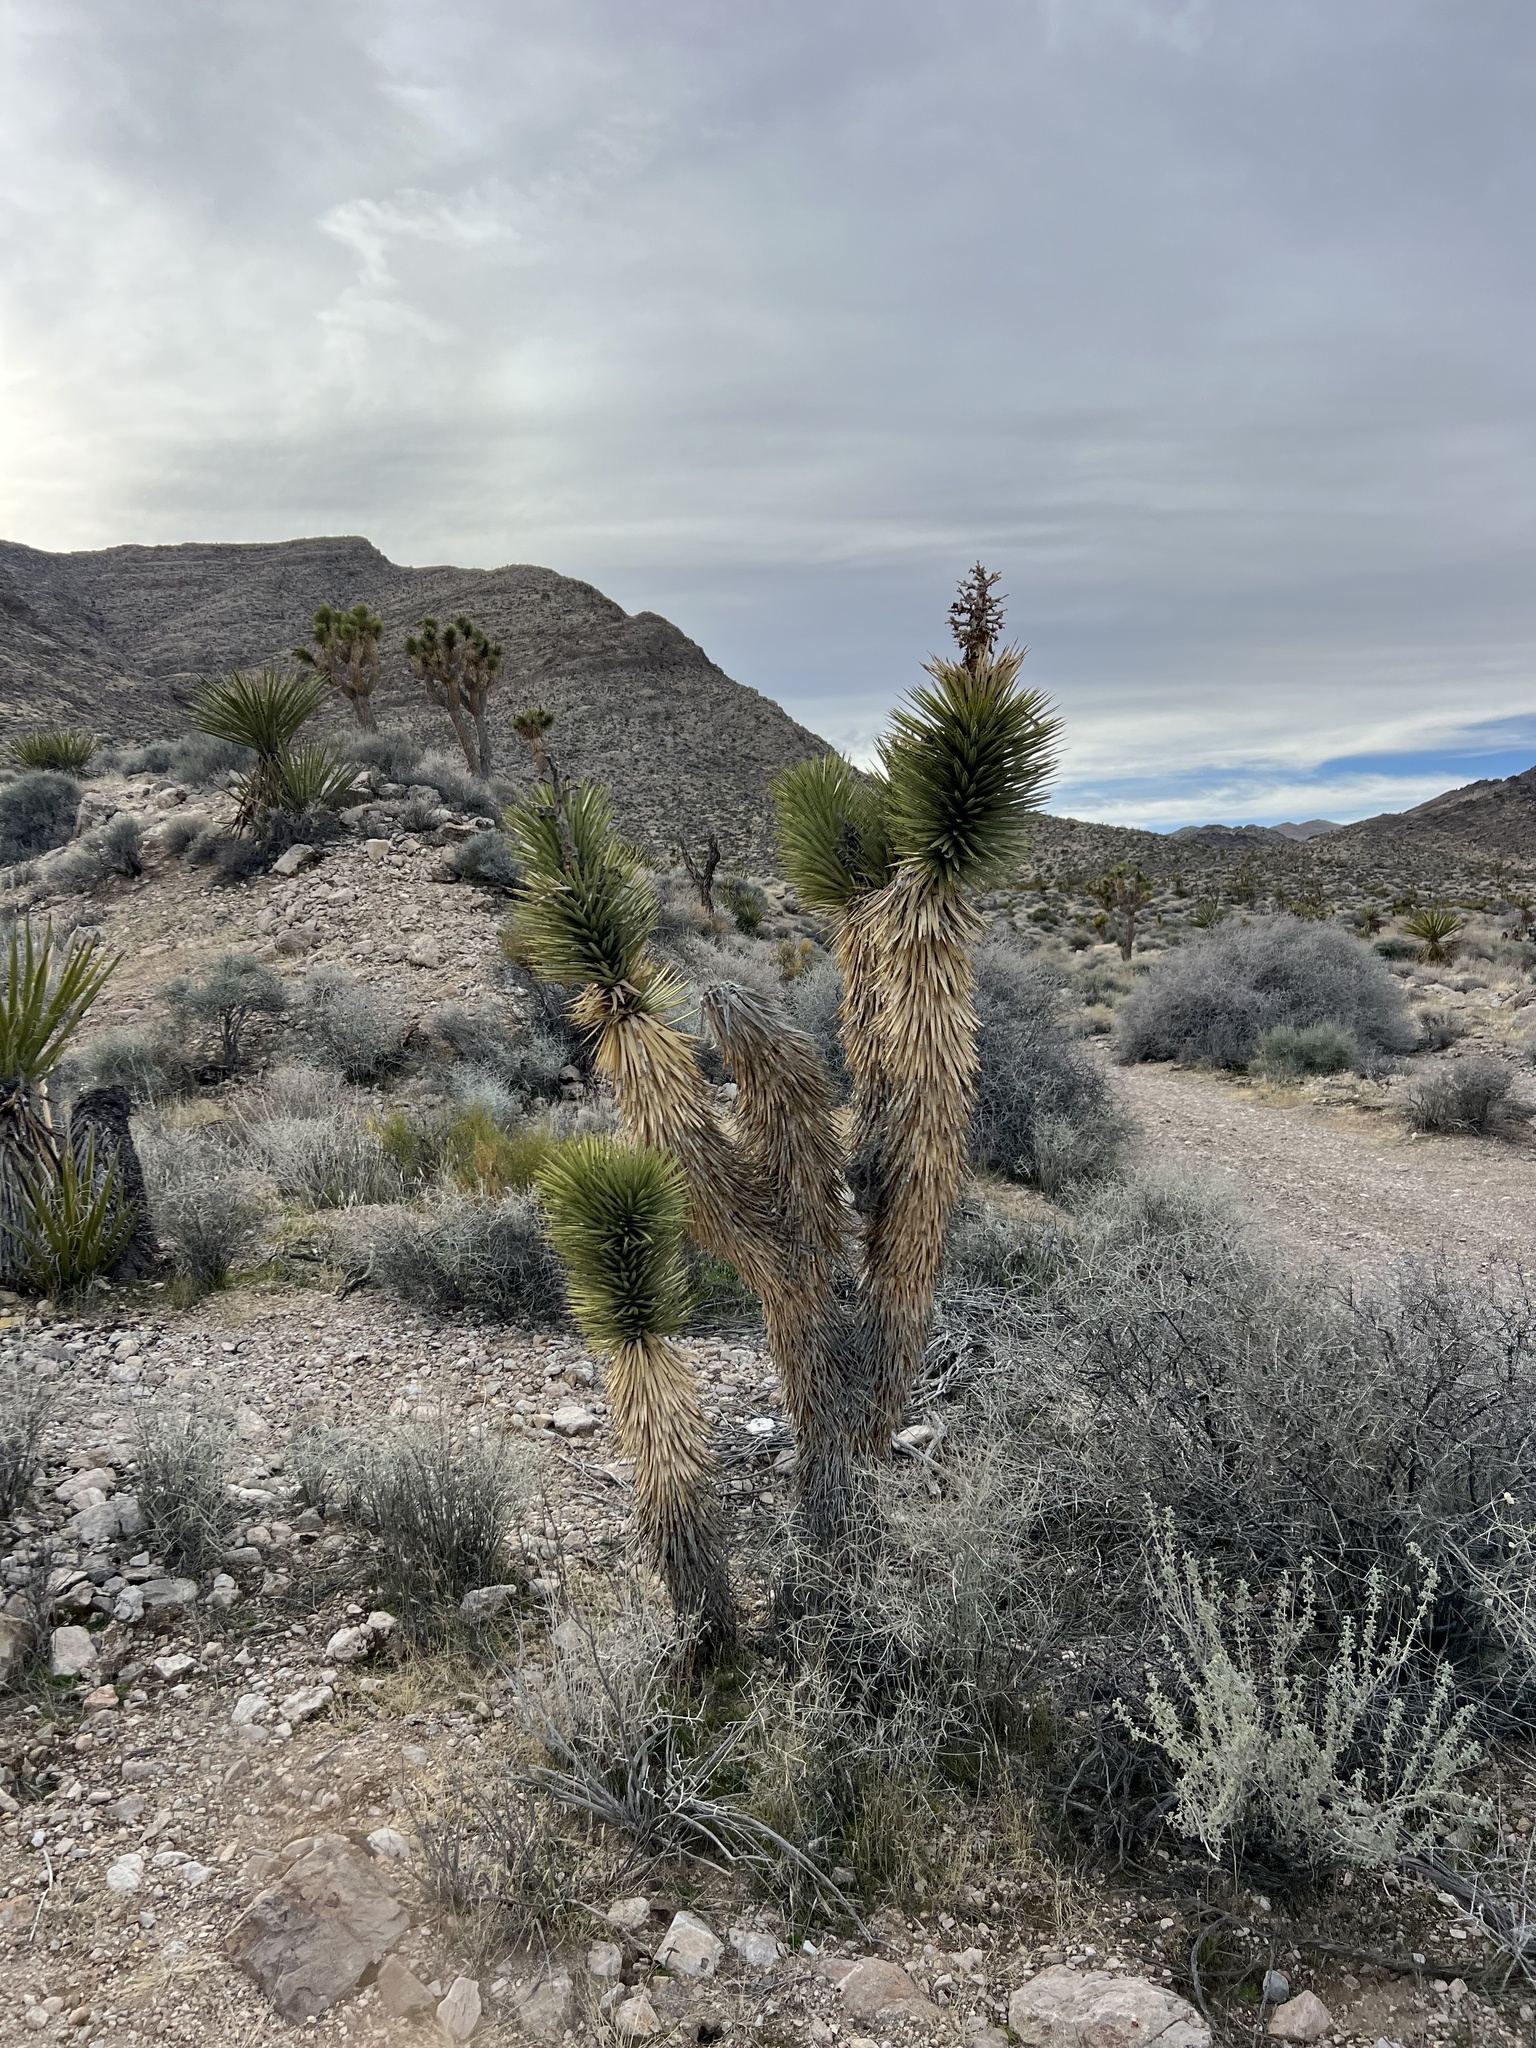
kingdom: Plantae
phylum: Tracheophyta
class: Liliopsida
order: Asparagales
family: Asparagaceae
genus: Yucca
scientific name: Yucca brevifolia
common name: Joshua tree
